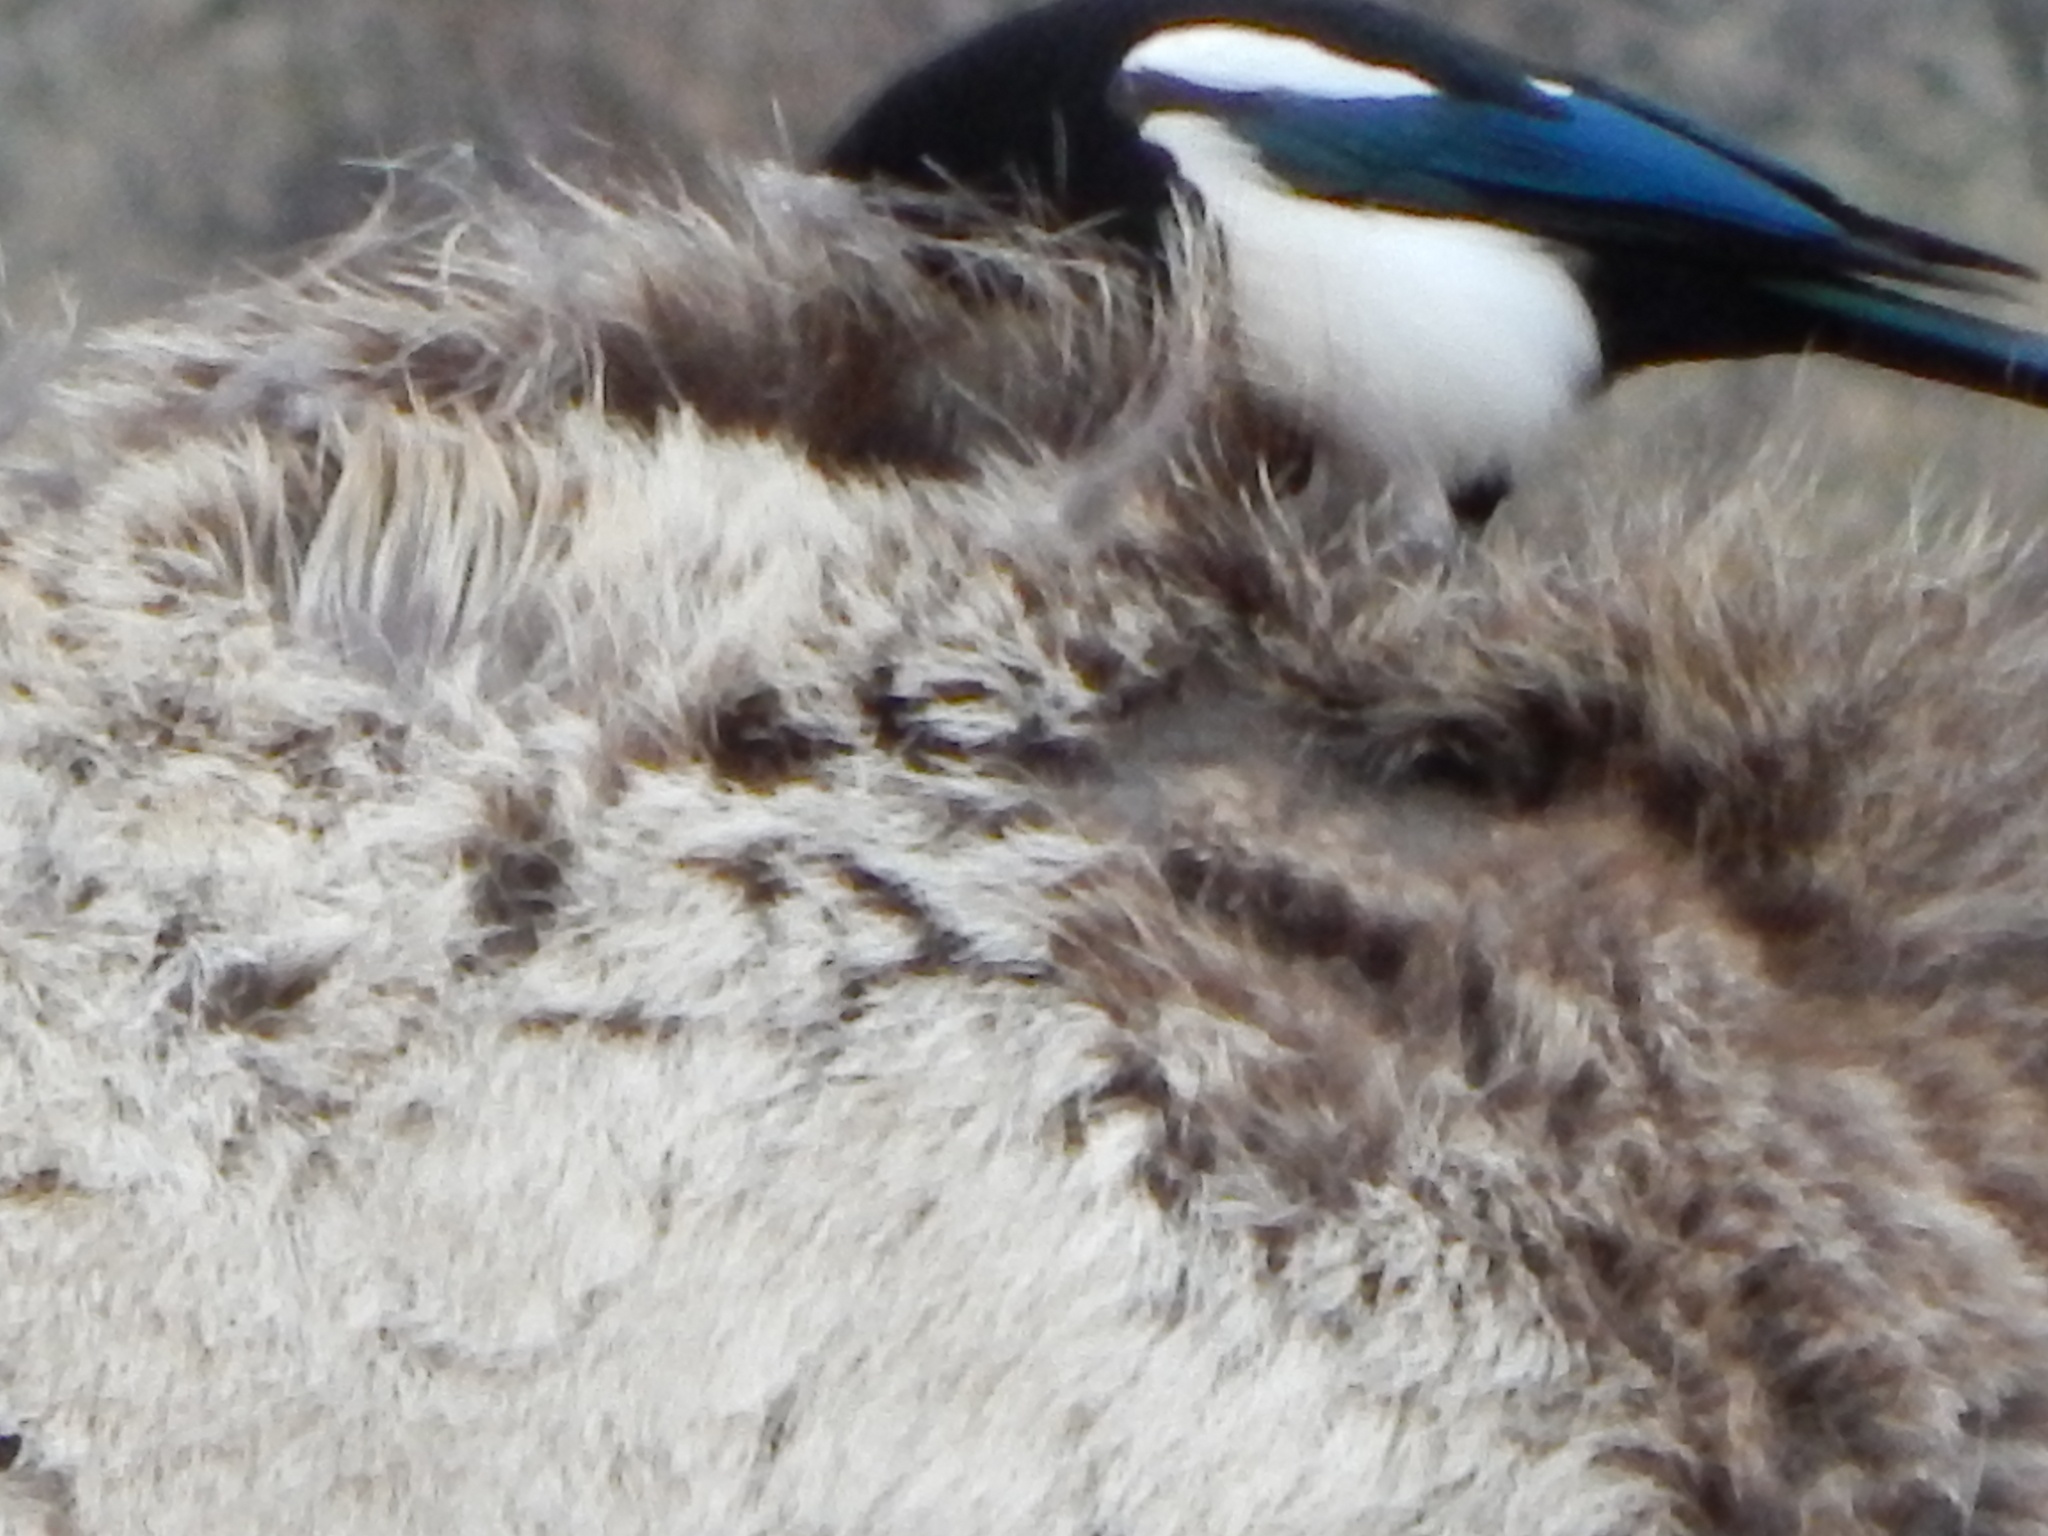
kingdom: Animalia
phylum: Chordata
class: Aves
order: Passeriformes
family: Corvidae
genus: Pica
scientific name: Pica hudsonia
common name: Black-billed magpie
